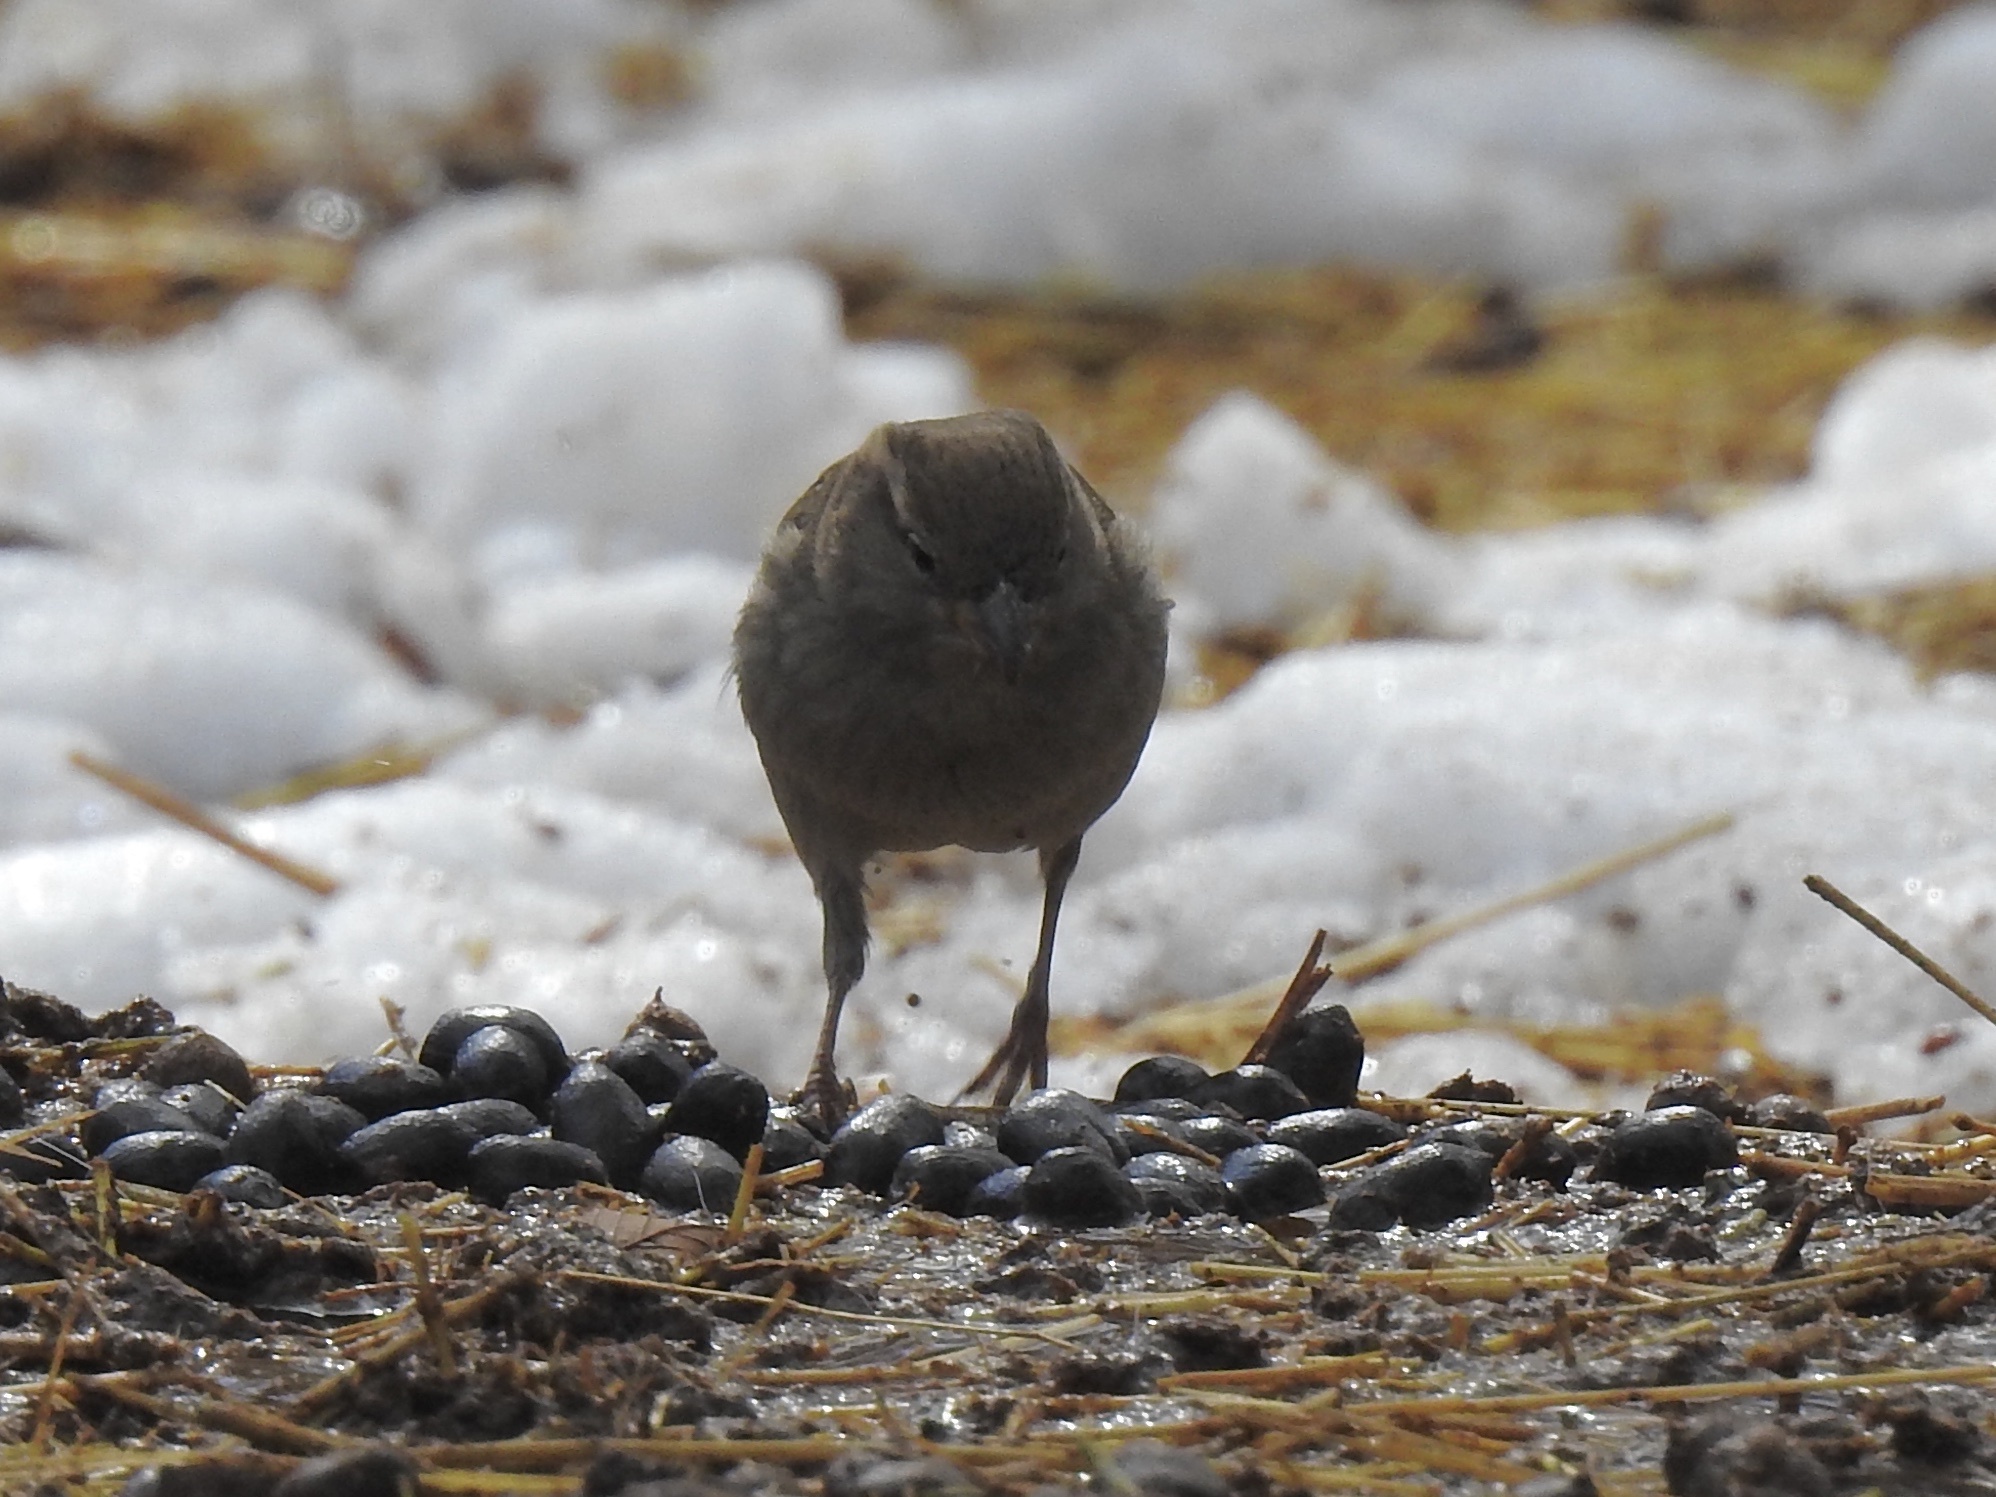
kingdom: Animalia
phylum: Chordata
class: Aves
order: Passeriformes
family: Passeridae
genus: Passer
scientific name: Passer domesticus
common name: House sparrow
